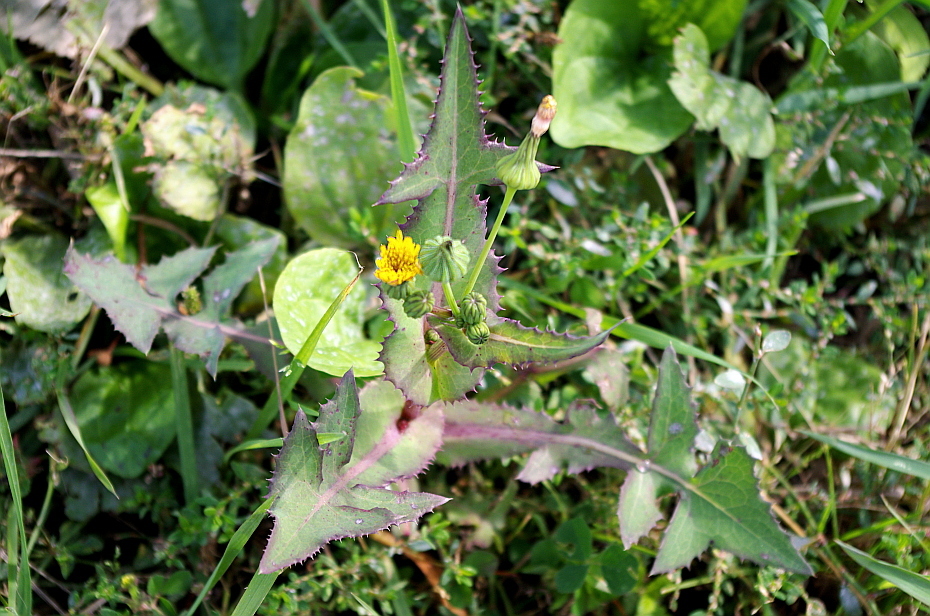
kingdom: Plantae
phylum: Tracheophyta
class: Magnoliopsida
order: Asterales
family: Asteraceae
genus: Sonchus
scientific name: Sonchus oleraceus
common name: Common sowthistle
